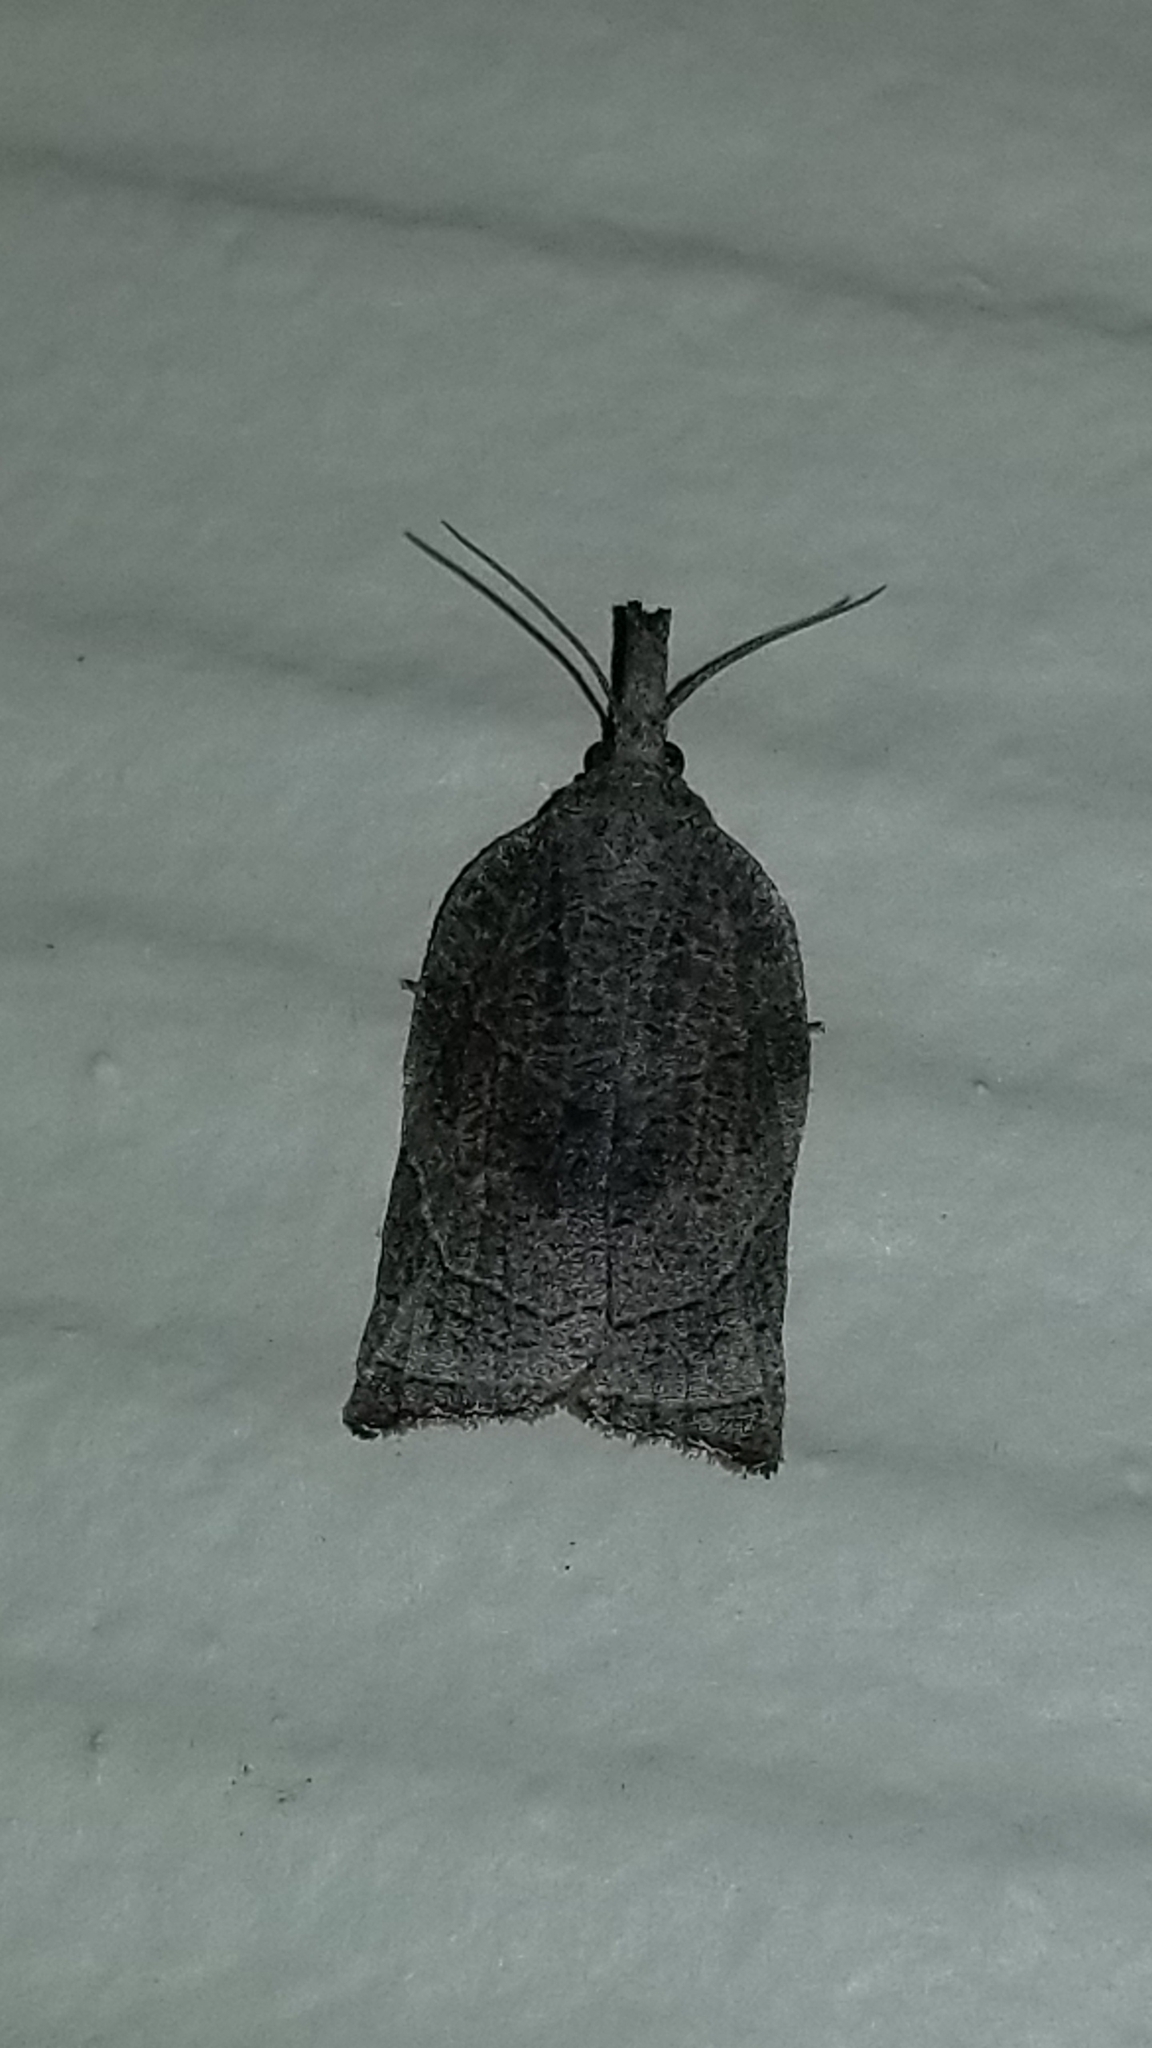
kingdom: Animalia
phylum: Arthropoda
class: Insecta
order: Lepidoptera
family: Tortricidae
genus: Platynota
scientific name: Platynota rostrana
